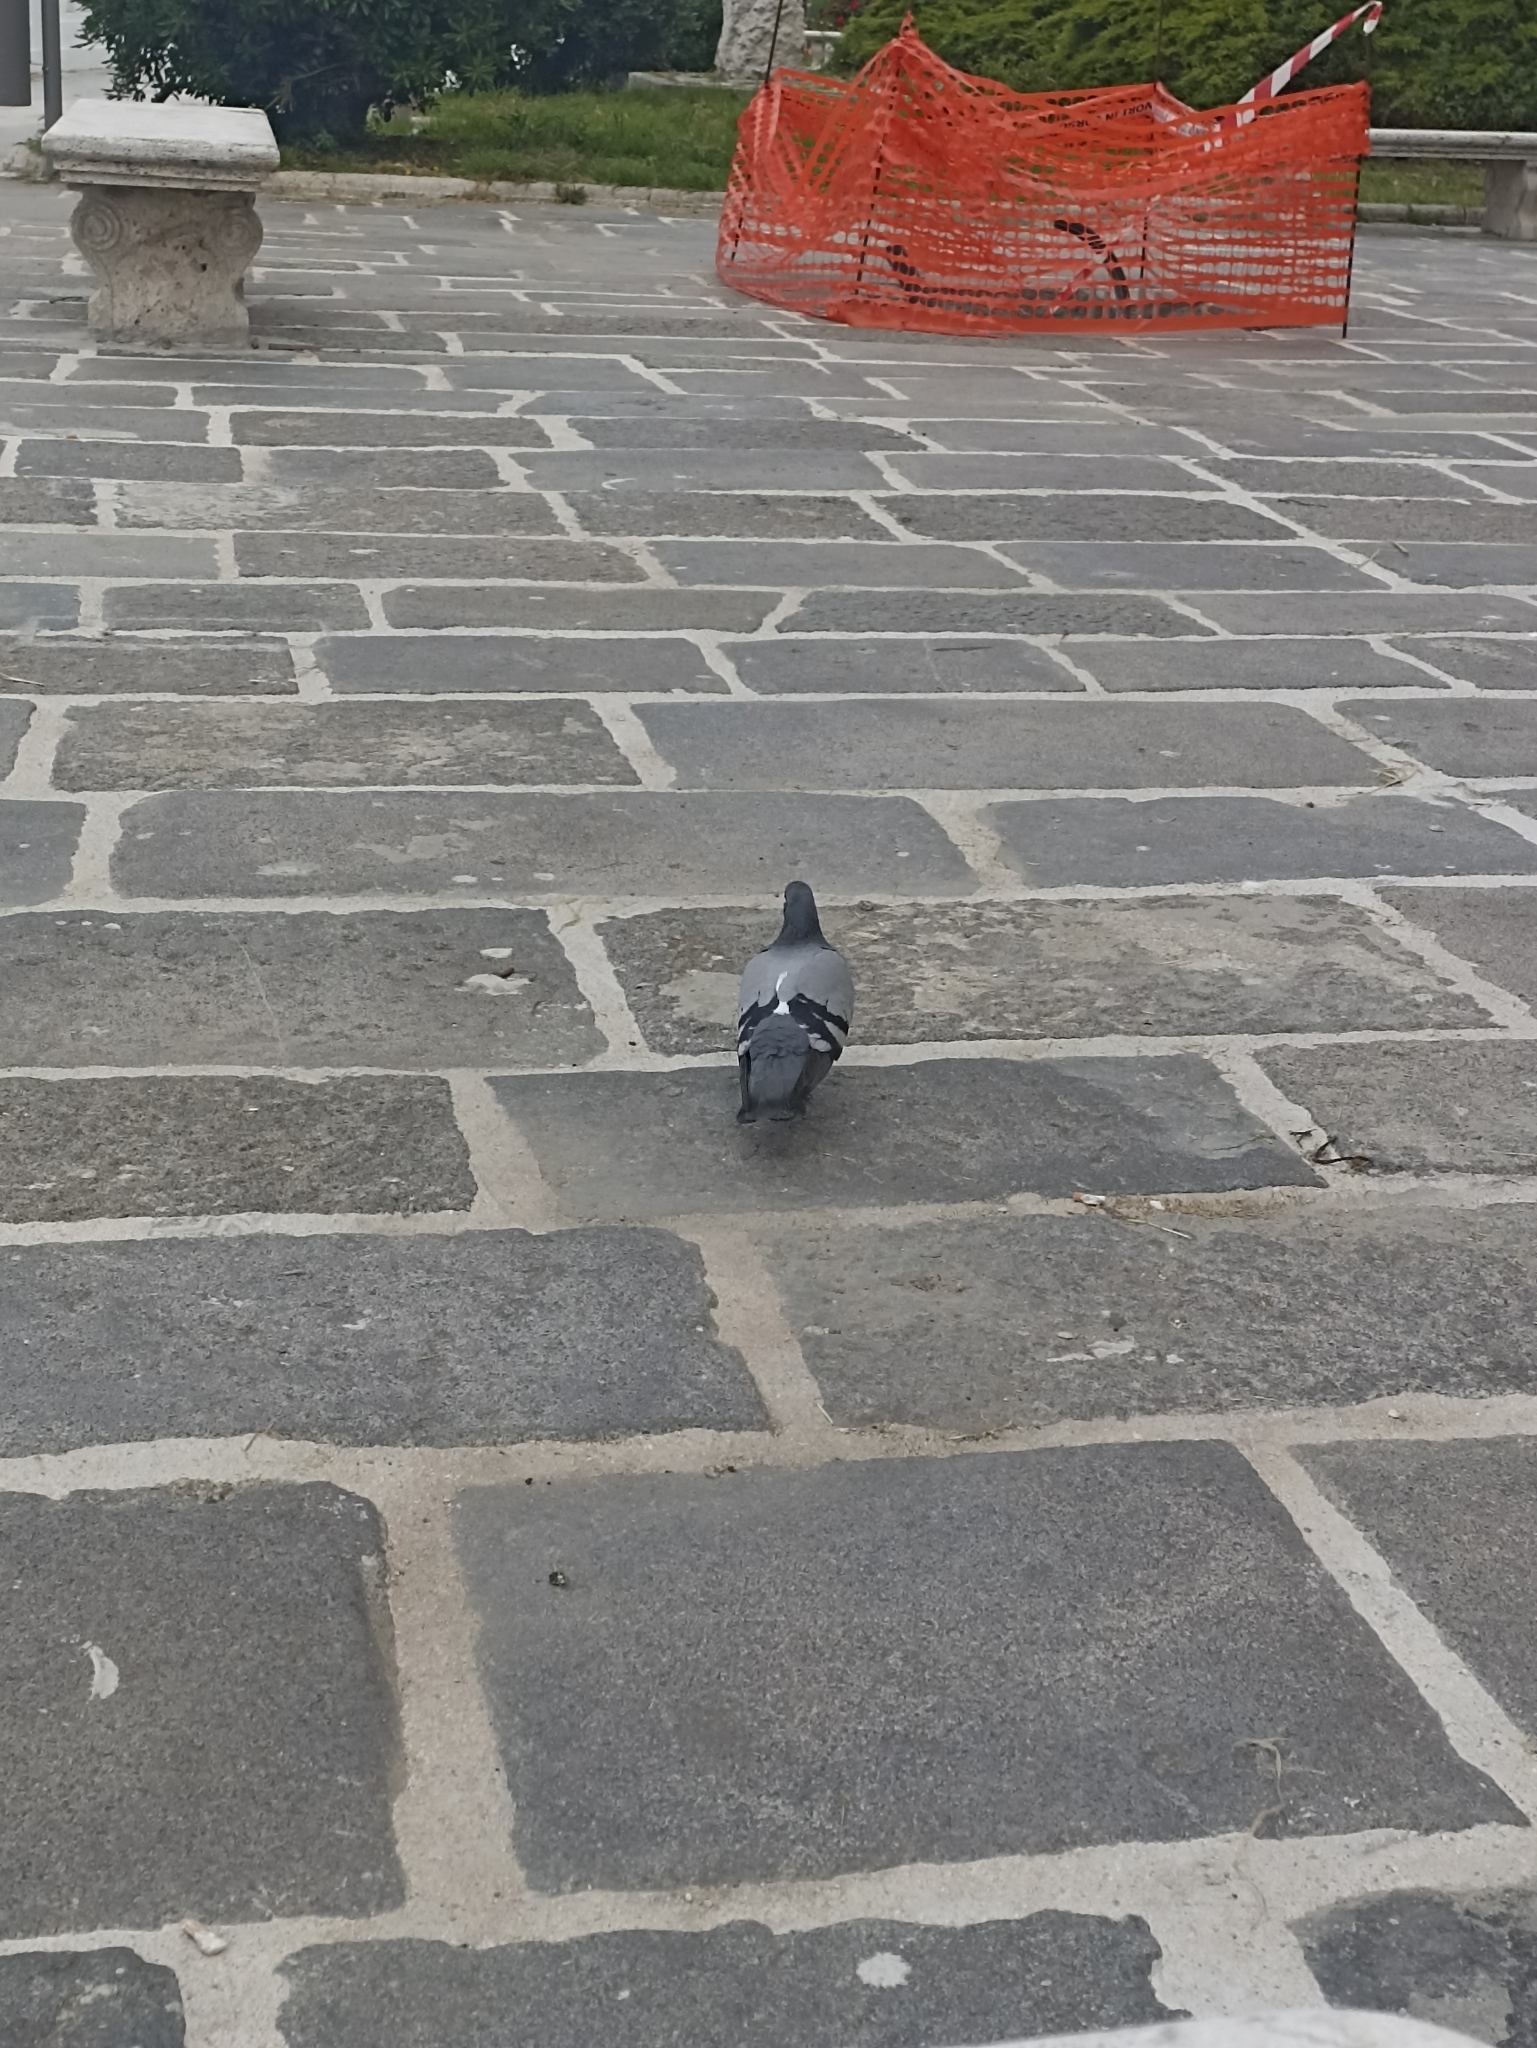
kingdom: Animalia
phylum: Chordata
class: Aves
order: Columbiformes
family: Columbidae
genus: Columba
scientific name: Columba livia
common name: Rock pigeon
